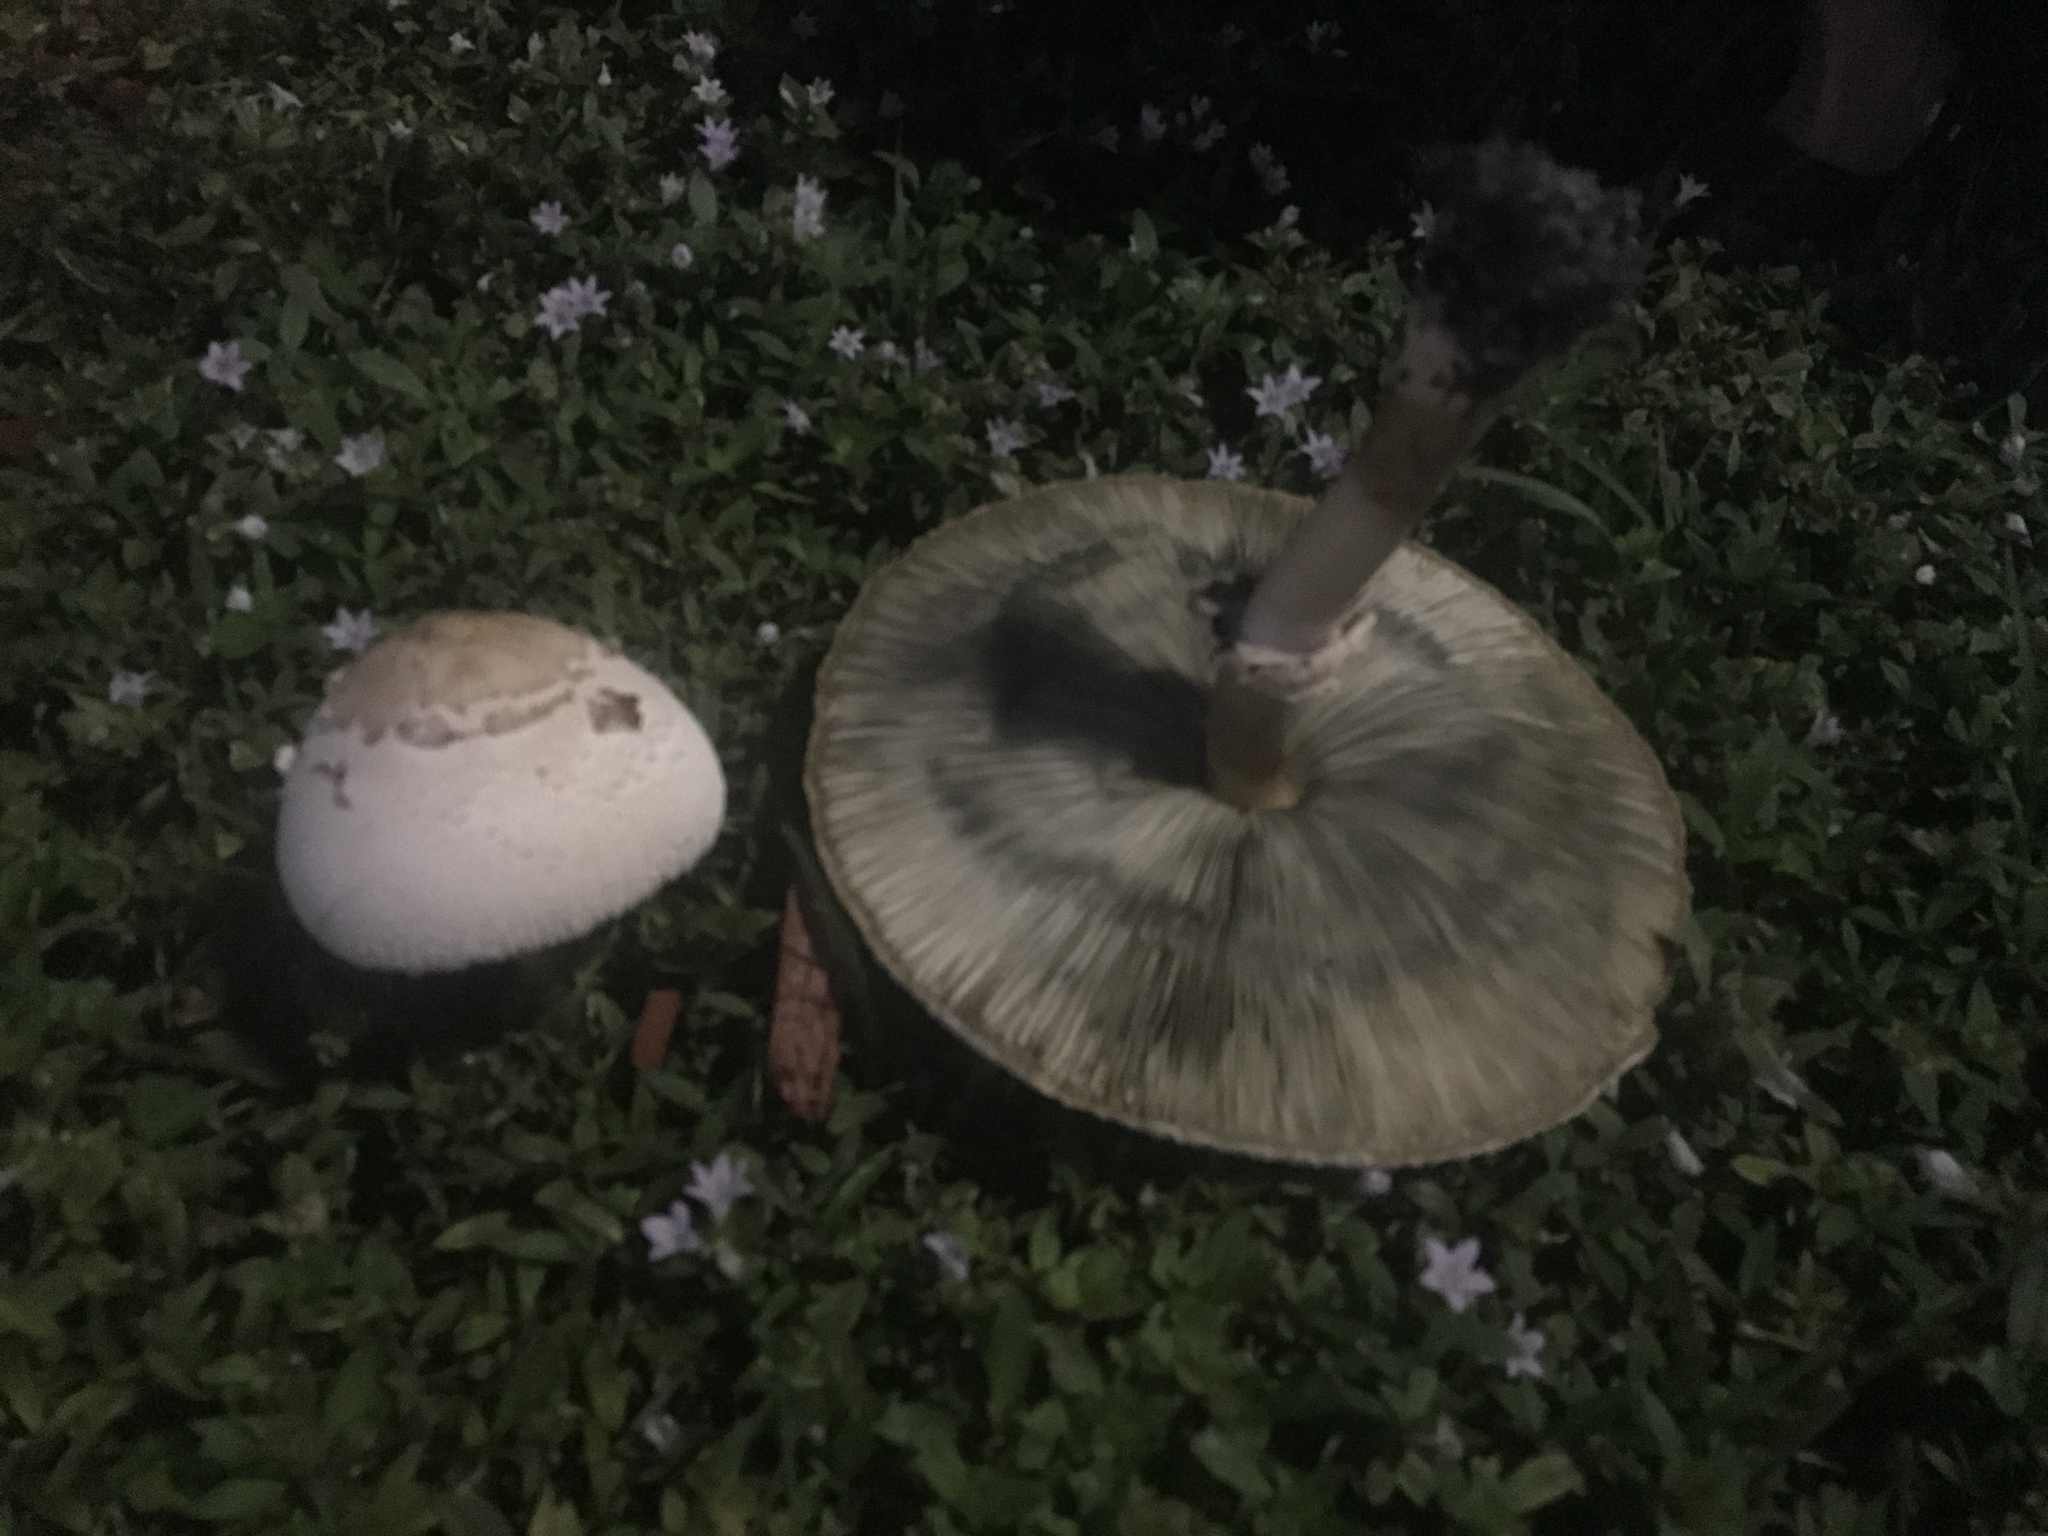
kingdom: Fungi
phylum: Basidiomycota
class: Agaricomycetes
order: Agaricales
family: Agaricaceae
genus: Chlorophyllum
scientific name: Chlorophyllum molybdites
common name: False parasol
